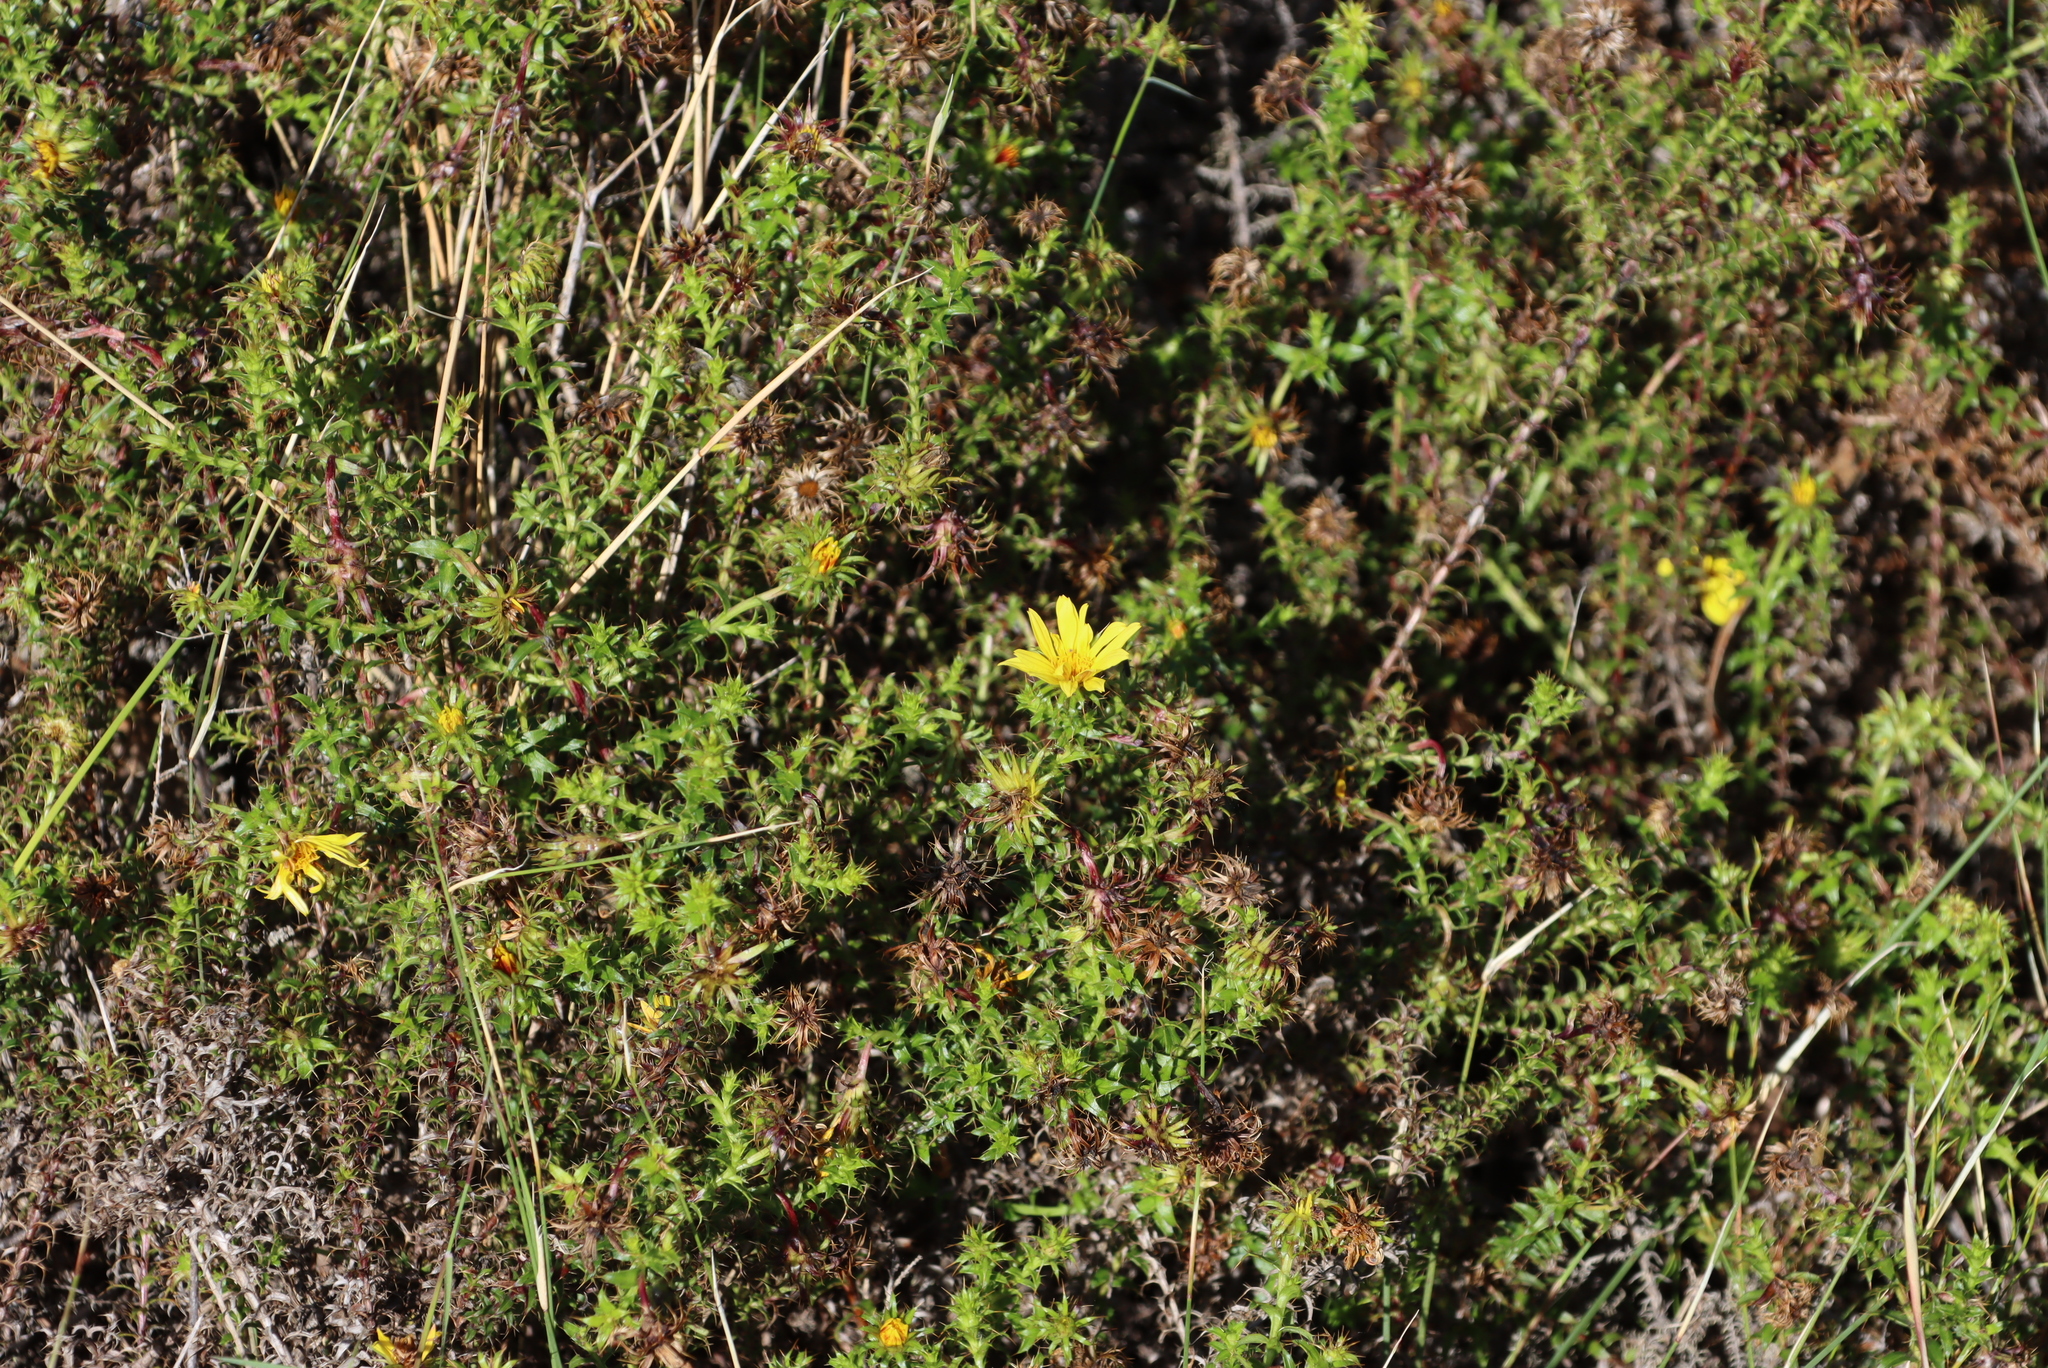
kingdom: Plantae
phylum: Tracheophyta
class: Magnoliopsida
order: Asterales
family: Asteraceae
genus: Cullumia
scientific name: Cullumia setosa
